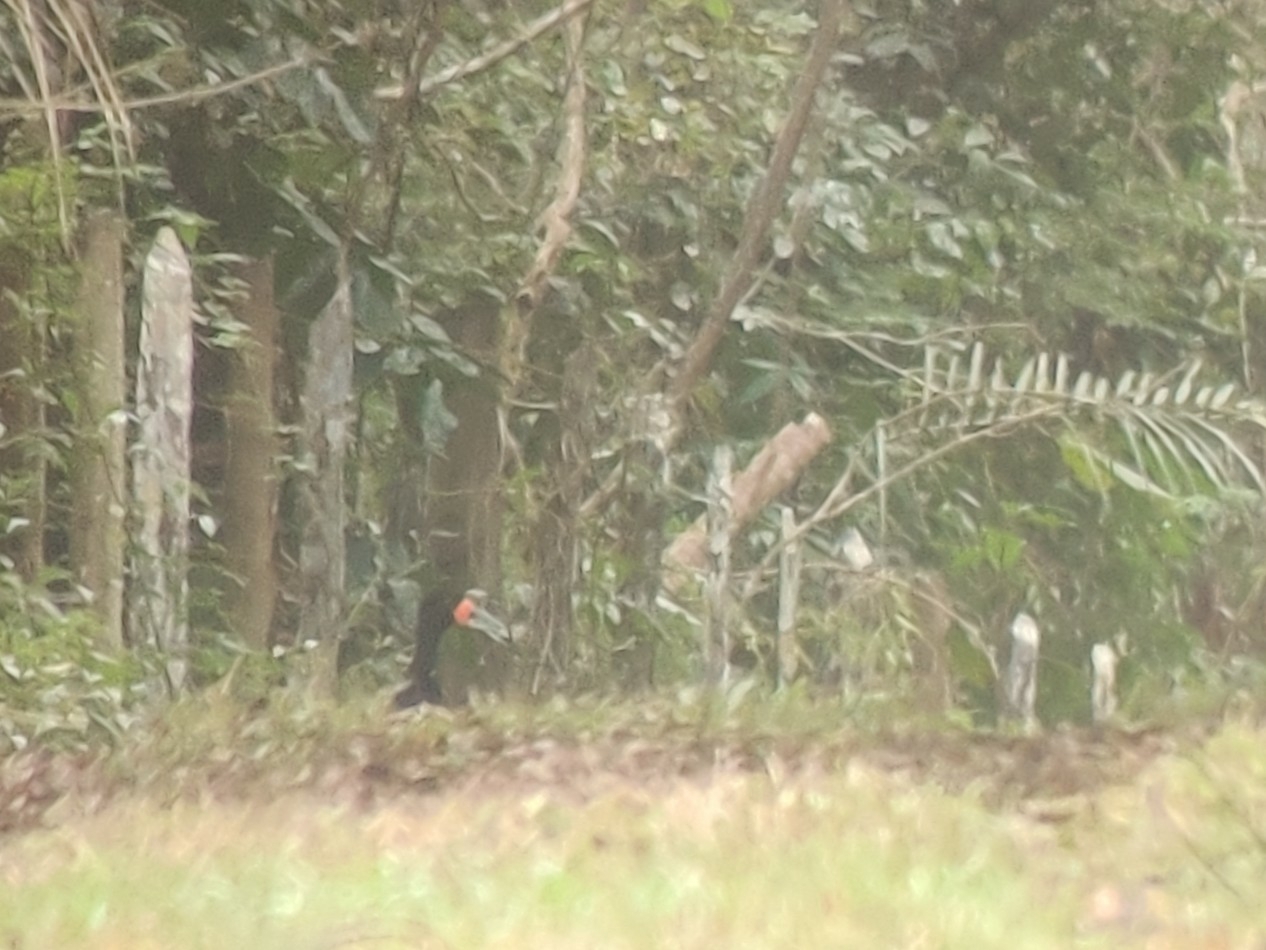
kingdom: Animalia
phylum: Chordata
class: Aves
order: Galliformes
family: Cracidae
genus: Crax
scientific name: Crax blumenbachii
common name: Red-billed curassow
